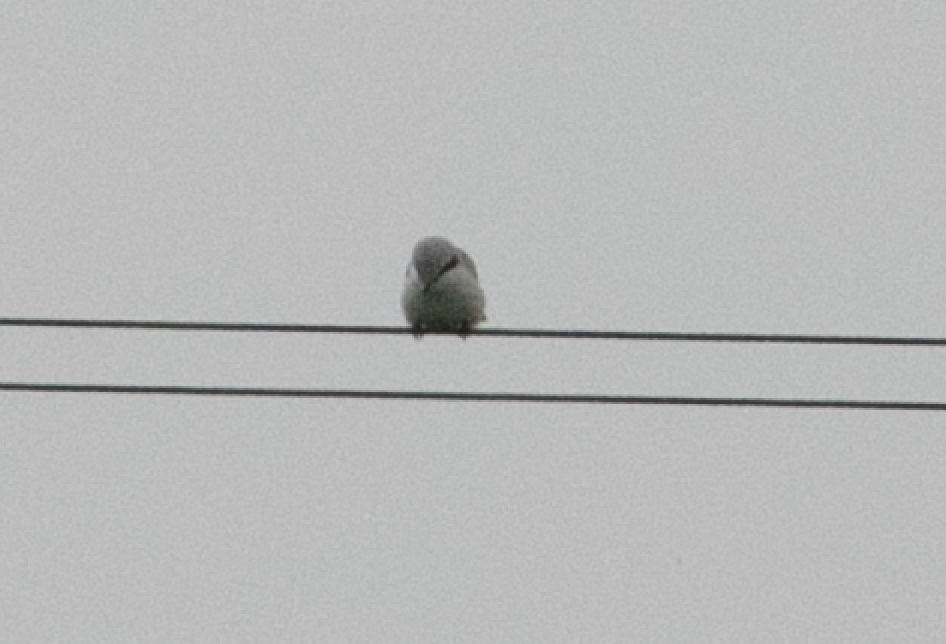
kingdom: Animalia
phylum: Chordata
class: Aves
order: Passeriformes
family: Laniidae
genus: Lanius
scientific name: Lanius excubitor
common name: Great grey shrike
